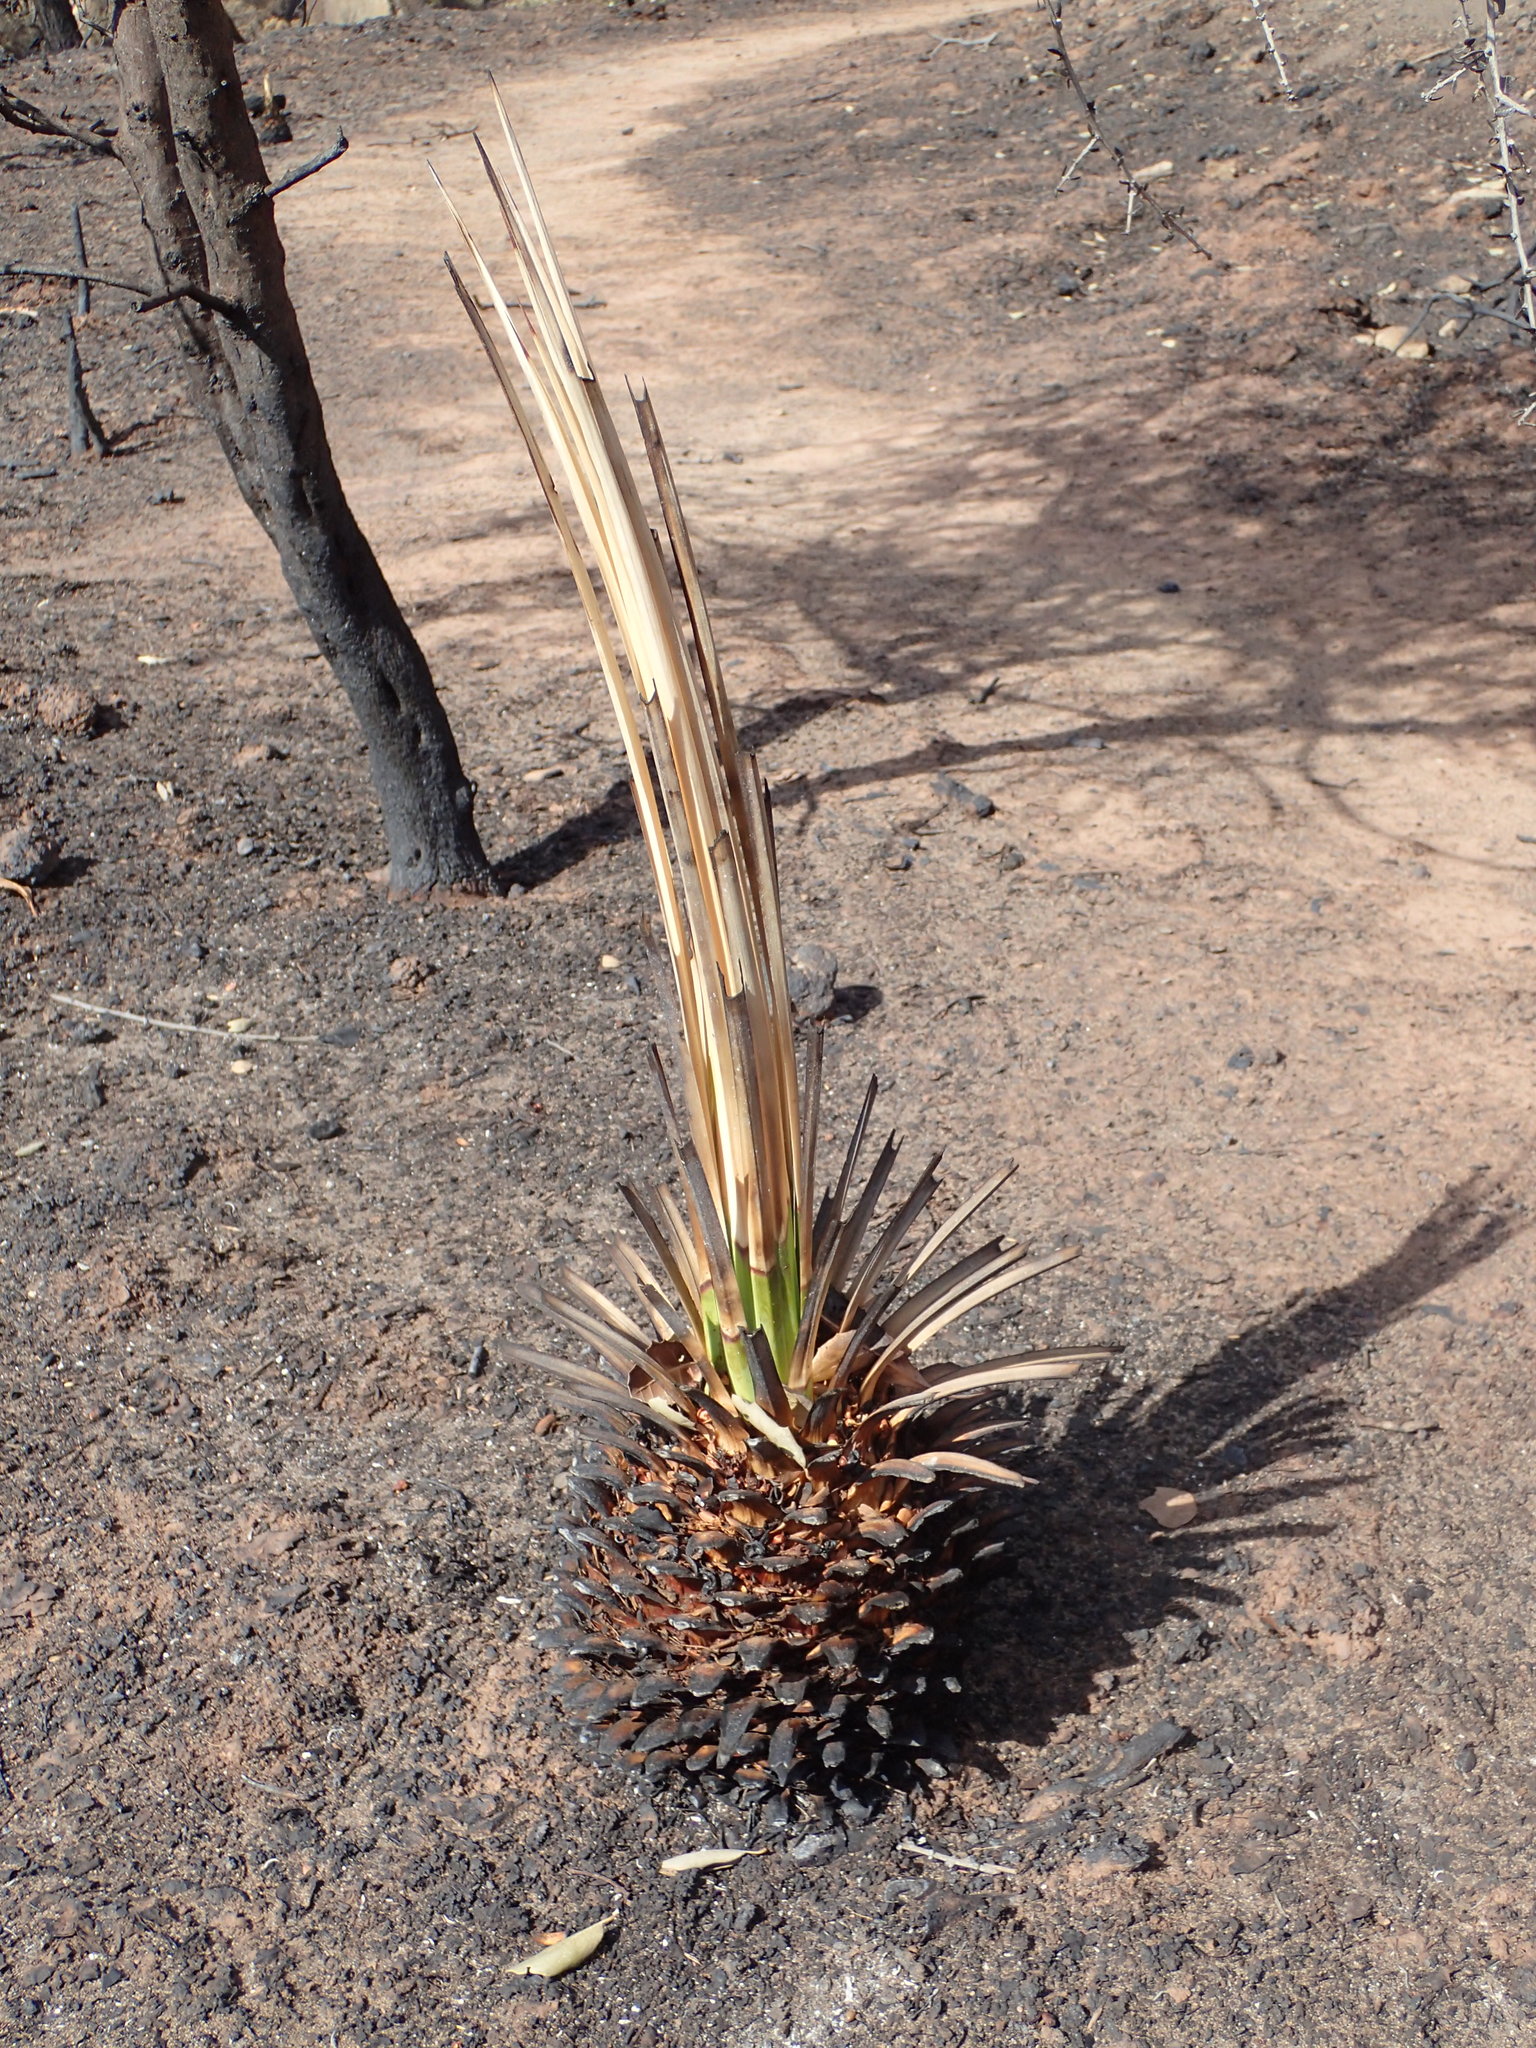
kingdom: Plantae
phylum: Tracheophyta
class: Liliopsida
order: Asparagales
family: Asparagaceae
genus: Hesperoyucca
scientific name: Hesperoyucca whipplei
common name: Our lord's-candle
